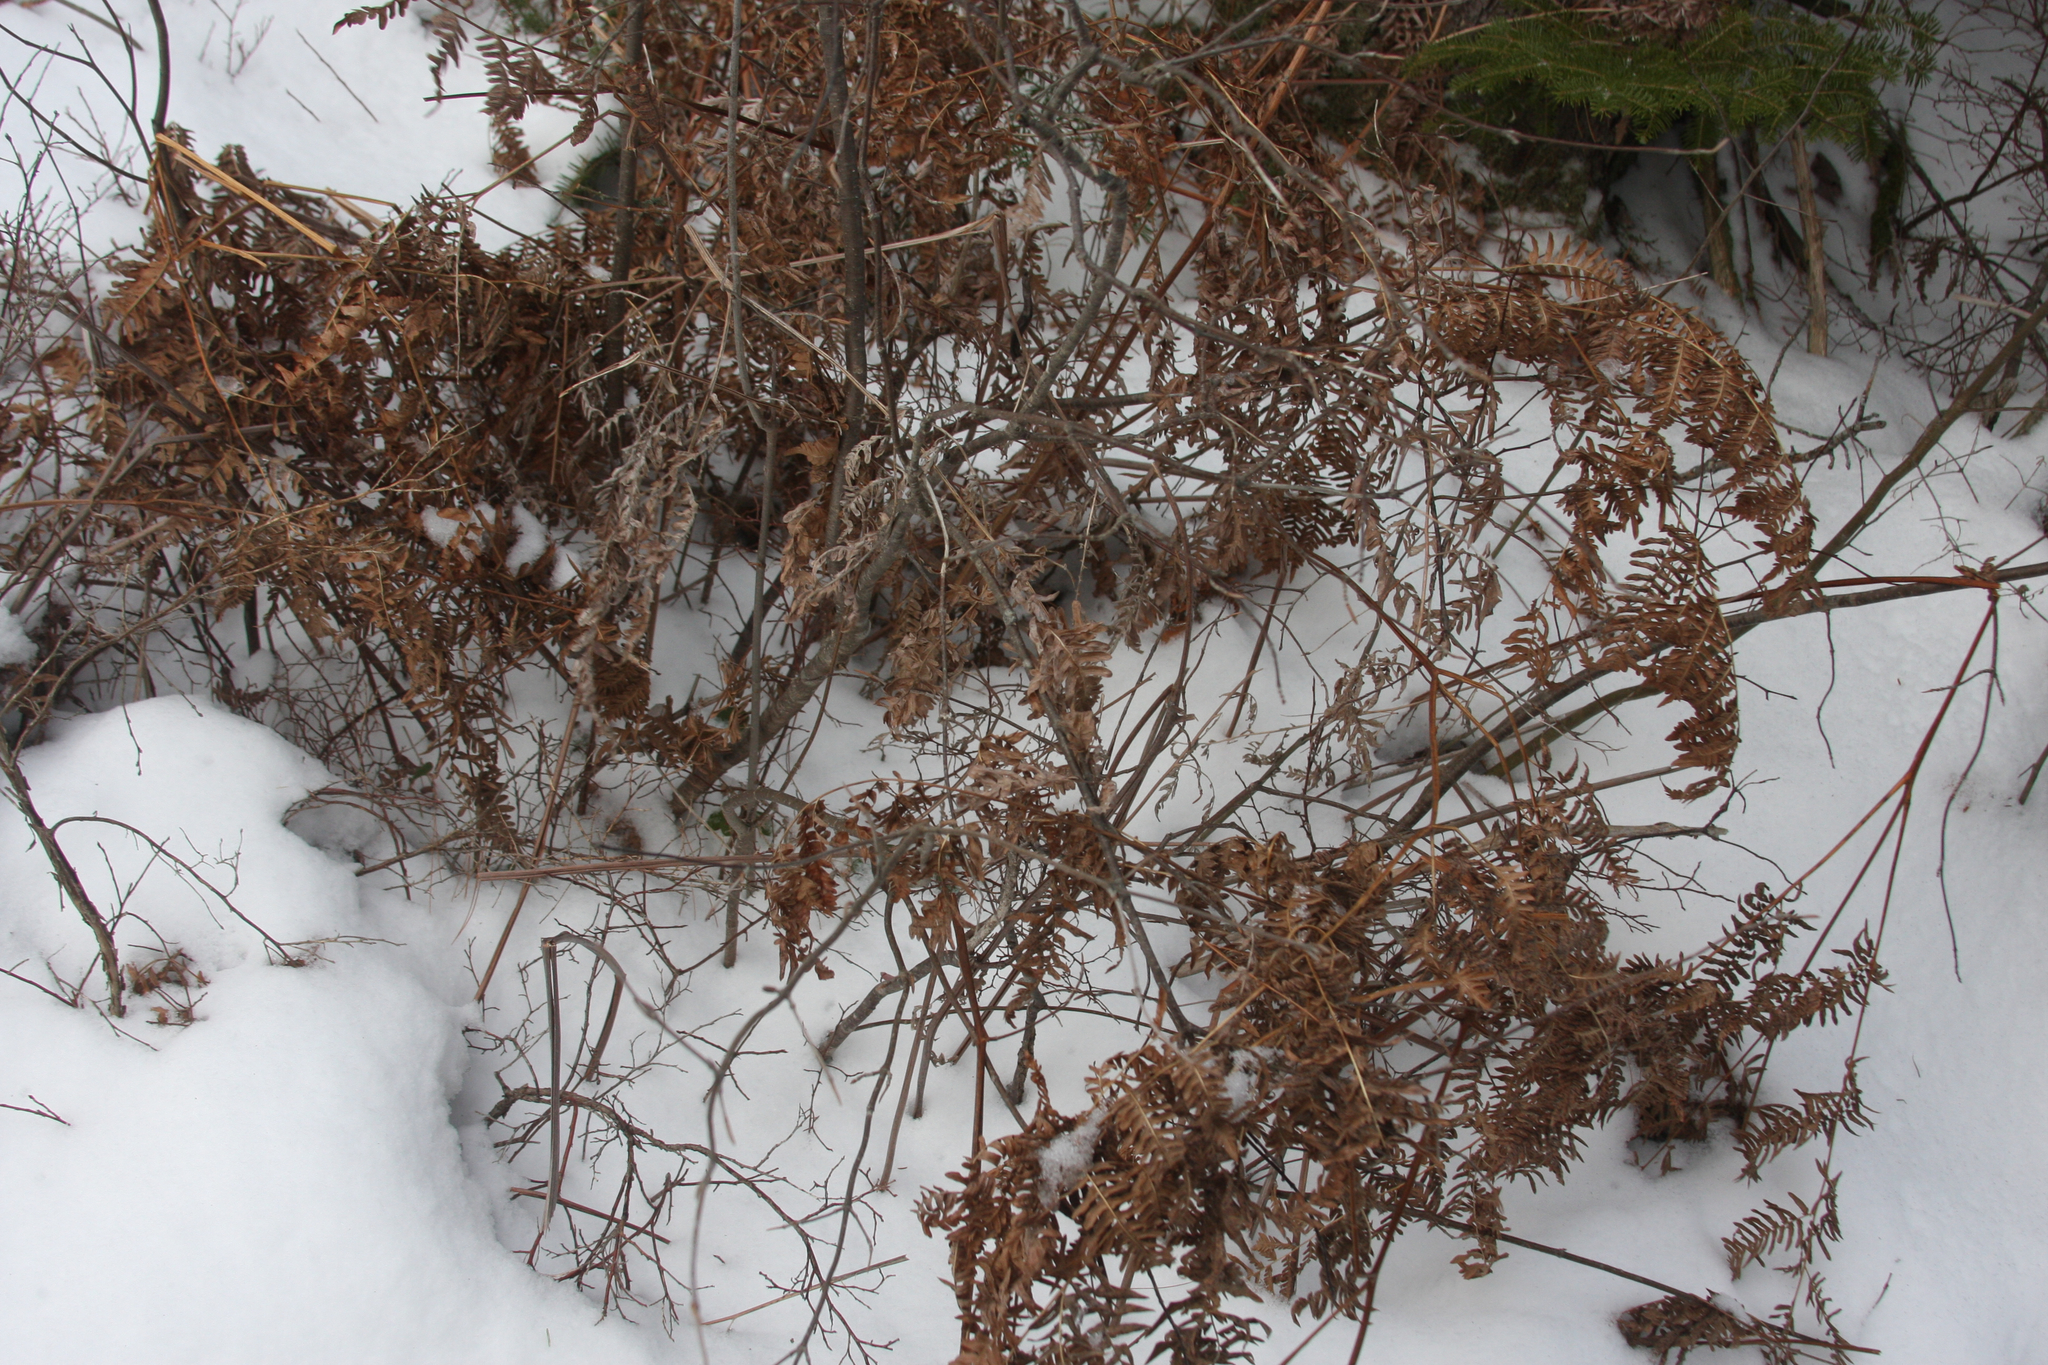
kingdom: Plantae
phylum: Tracheophyta
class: Polypodiopsida
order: Polypodiales
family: Dennstaedtiaceae
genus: Pteridium
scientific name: Pteridium aquilinum
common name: Bracken
